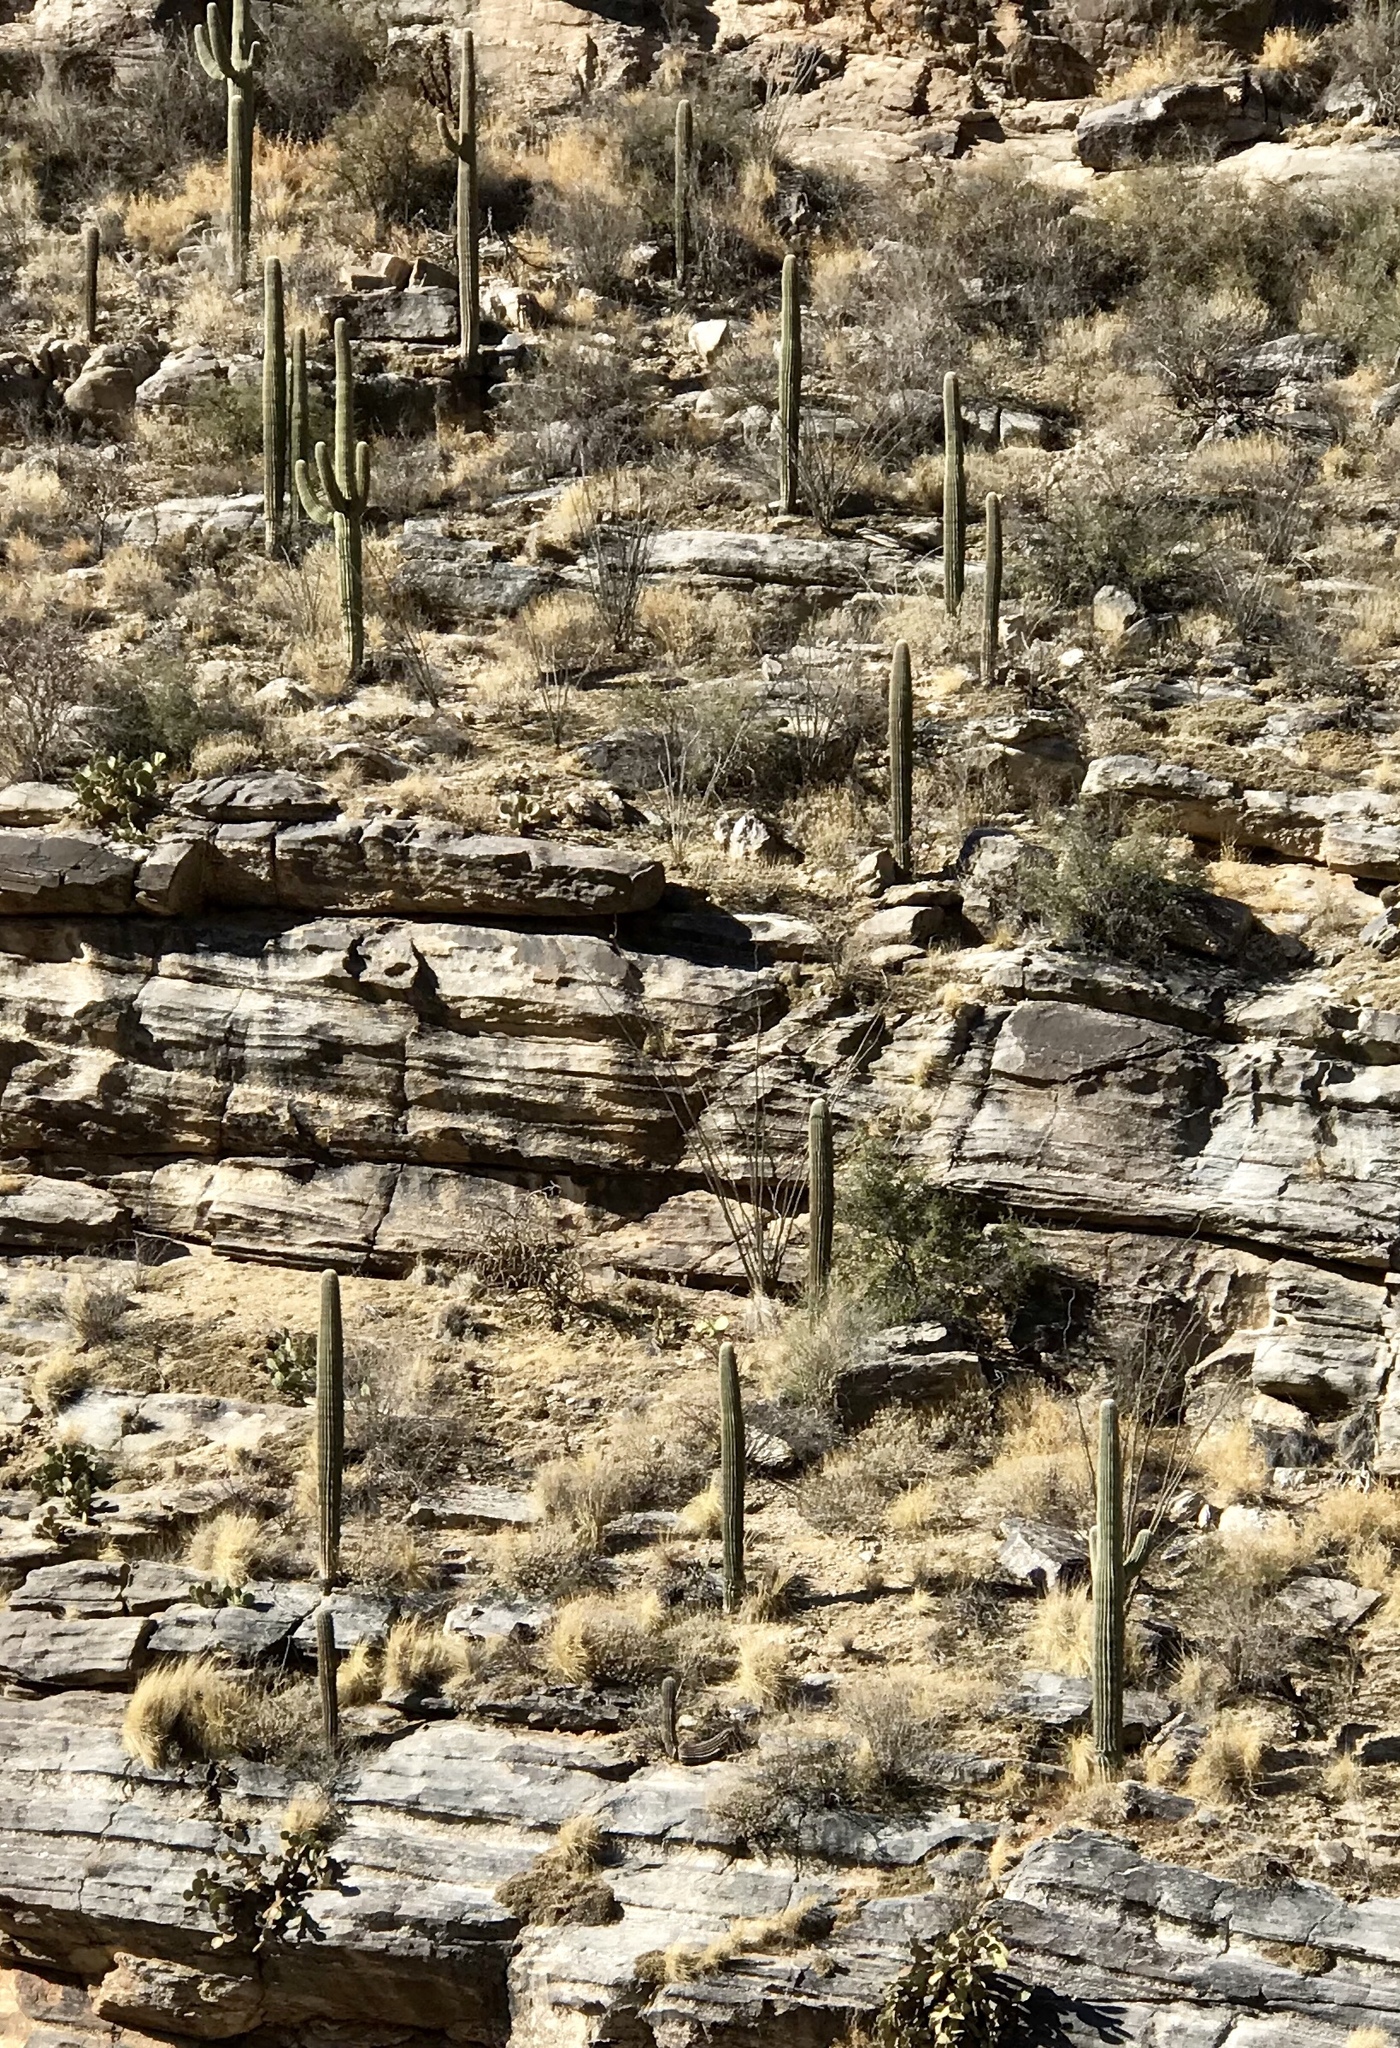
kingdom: Plantae
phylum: Tracheophyta
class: Magnoliopsida
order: Caryophyllales
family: Cactaceae
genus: Carnegiea
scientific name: Carnegiea gigantea
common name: Saguaro
